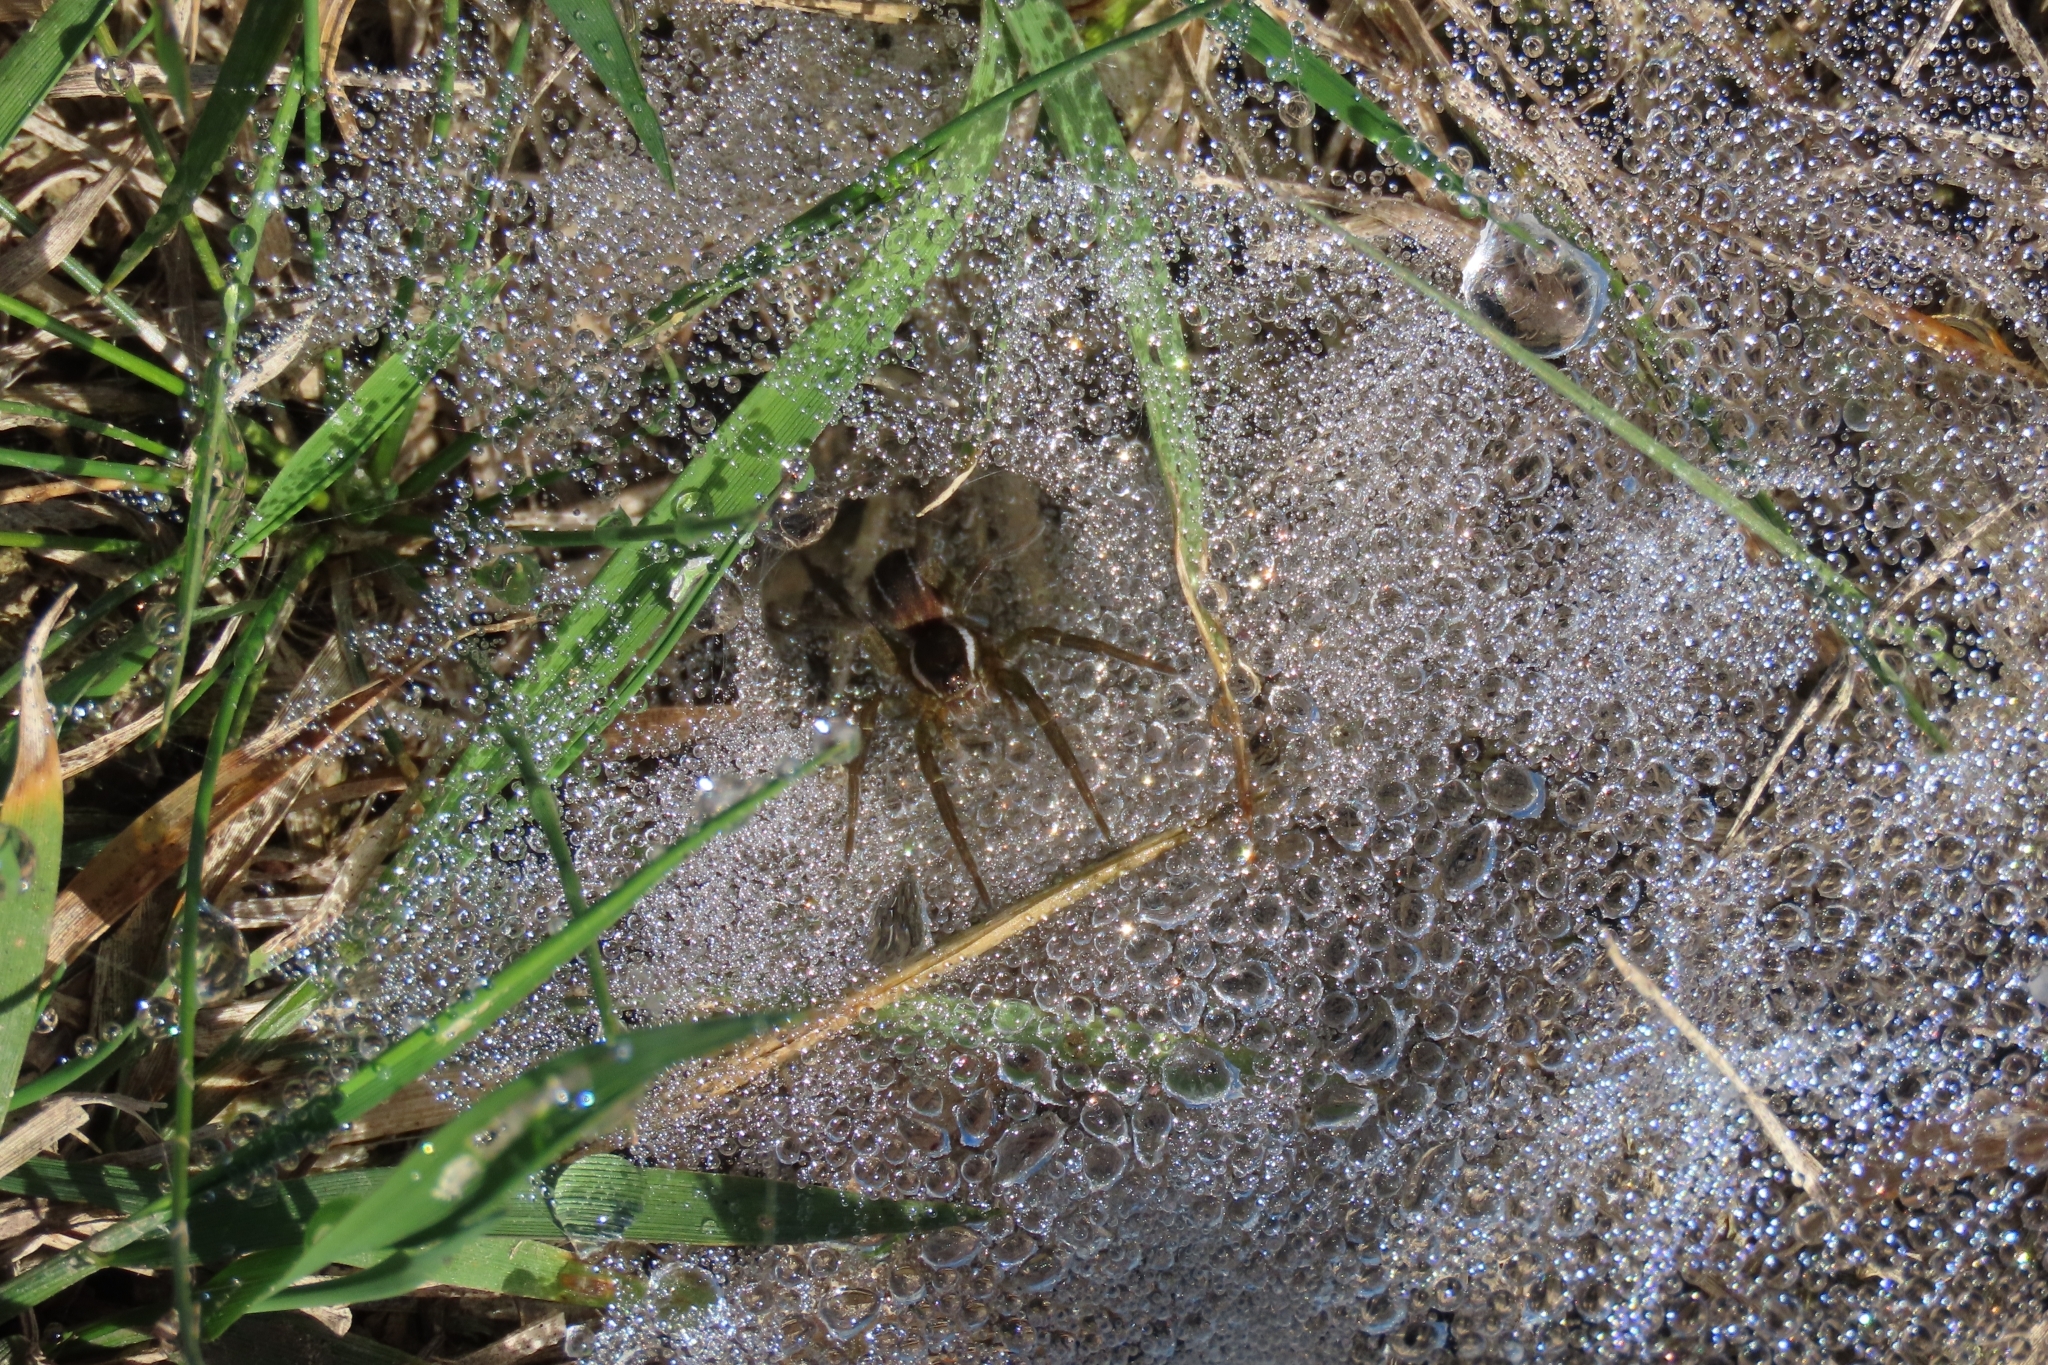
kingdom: Animalia
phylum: Arthropoda
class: Arachnida
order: Araneae
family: Lycosidae
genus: Diapontia
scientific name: Diapontia uruguayensis
